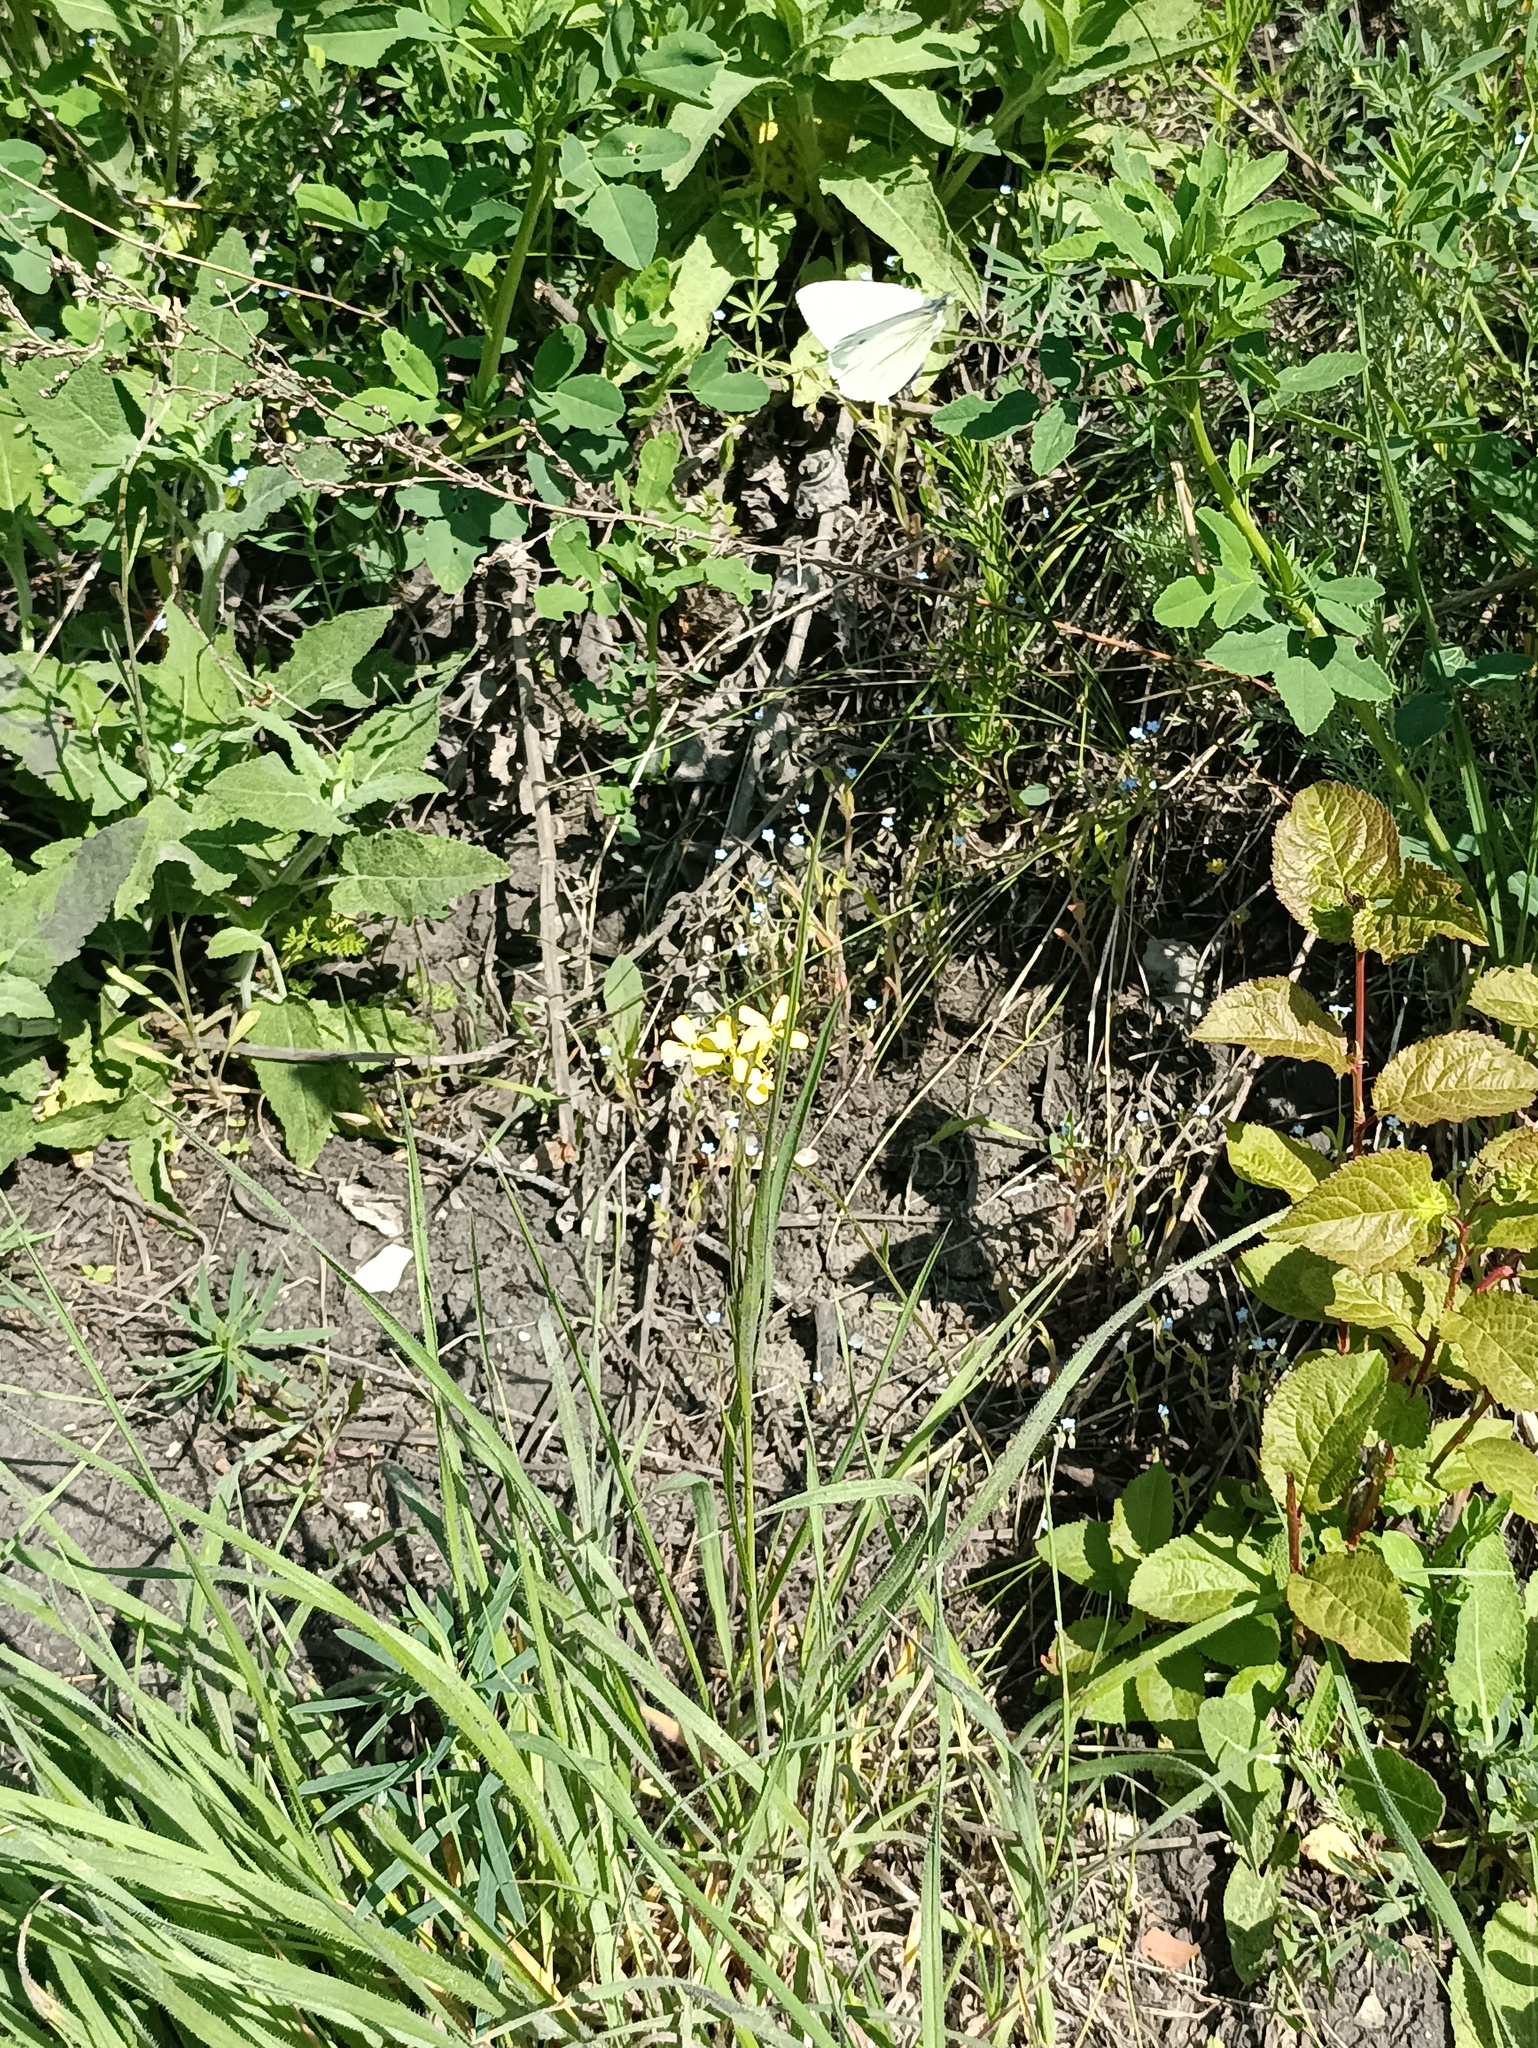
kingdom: Animalia
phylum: Arthropoda
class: Insecta
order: Lepidoptera
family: Pieridae
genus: Pieris
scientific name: Pieris napi
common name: Green-veined white
